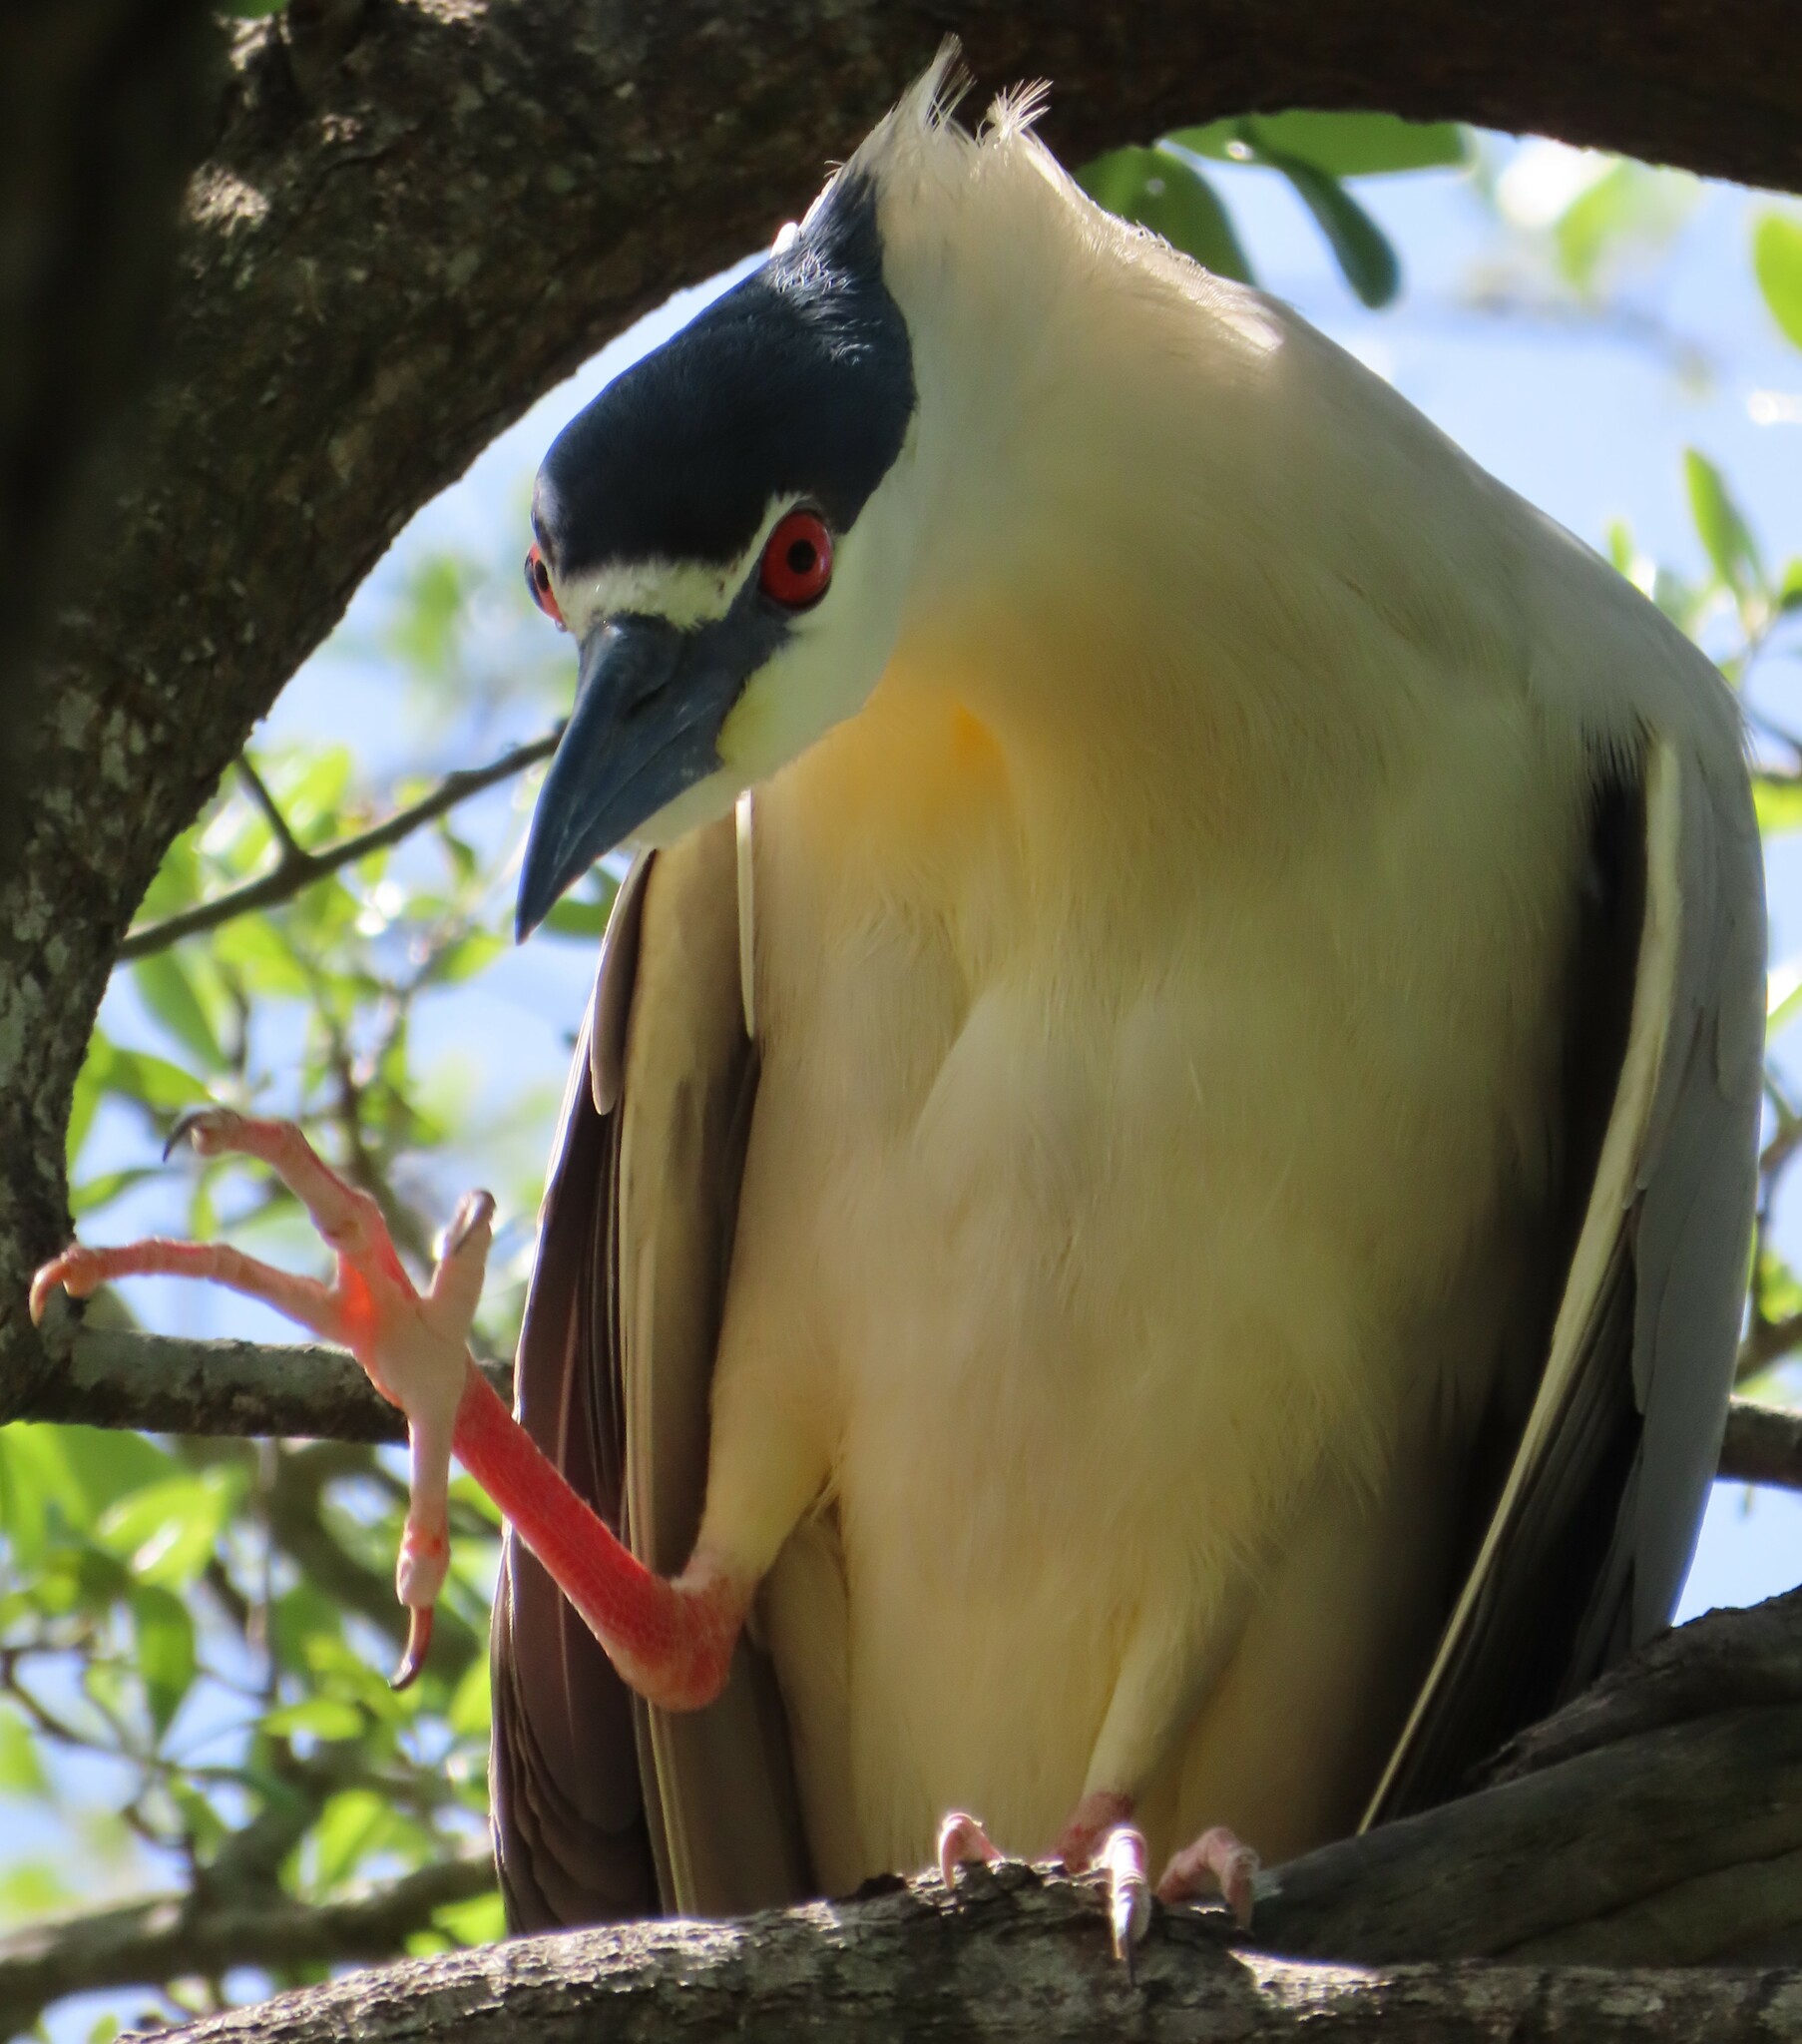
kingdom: Animalia
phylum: Chordata
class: Aves
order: Pelecaniformes
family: Ardeidae
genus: Nycticorax
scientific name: Nycticorax nycticorax
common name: Black-crowned night heron
